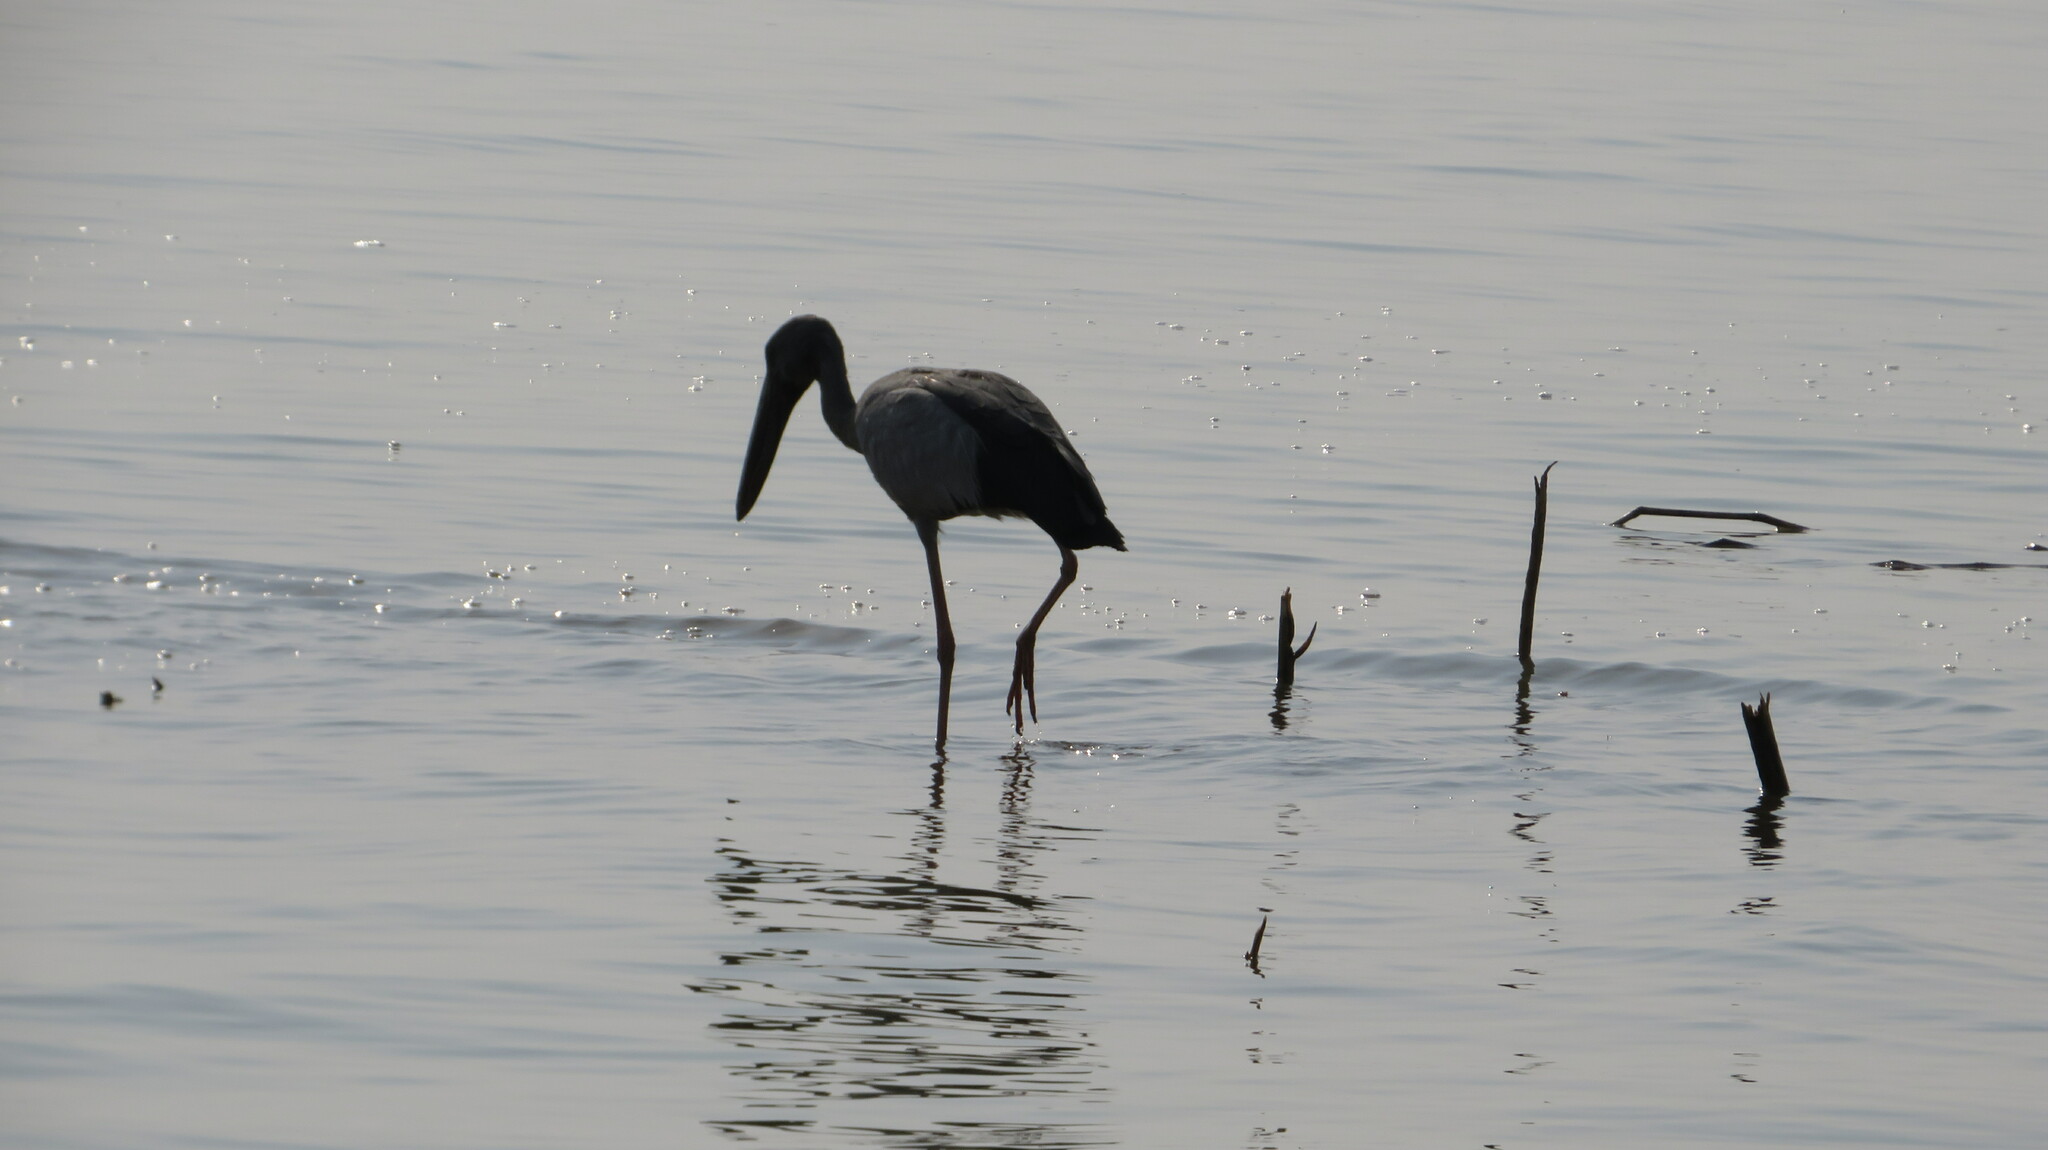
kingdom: Animalia
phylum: Chordata
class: Aves
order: Ciconiiformes
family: Ciconiidae
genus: Anastomus
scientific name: Anastomus oscitans
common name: Asian openbill
